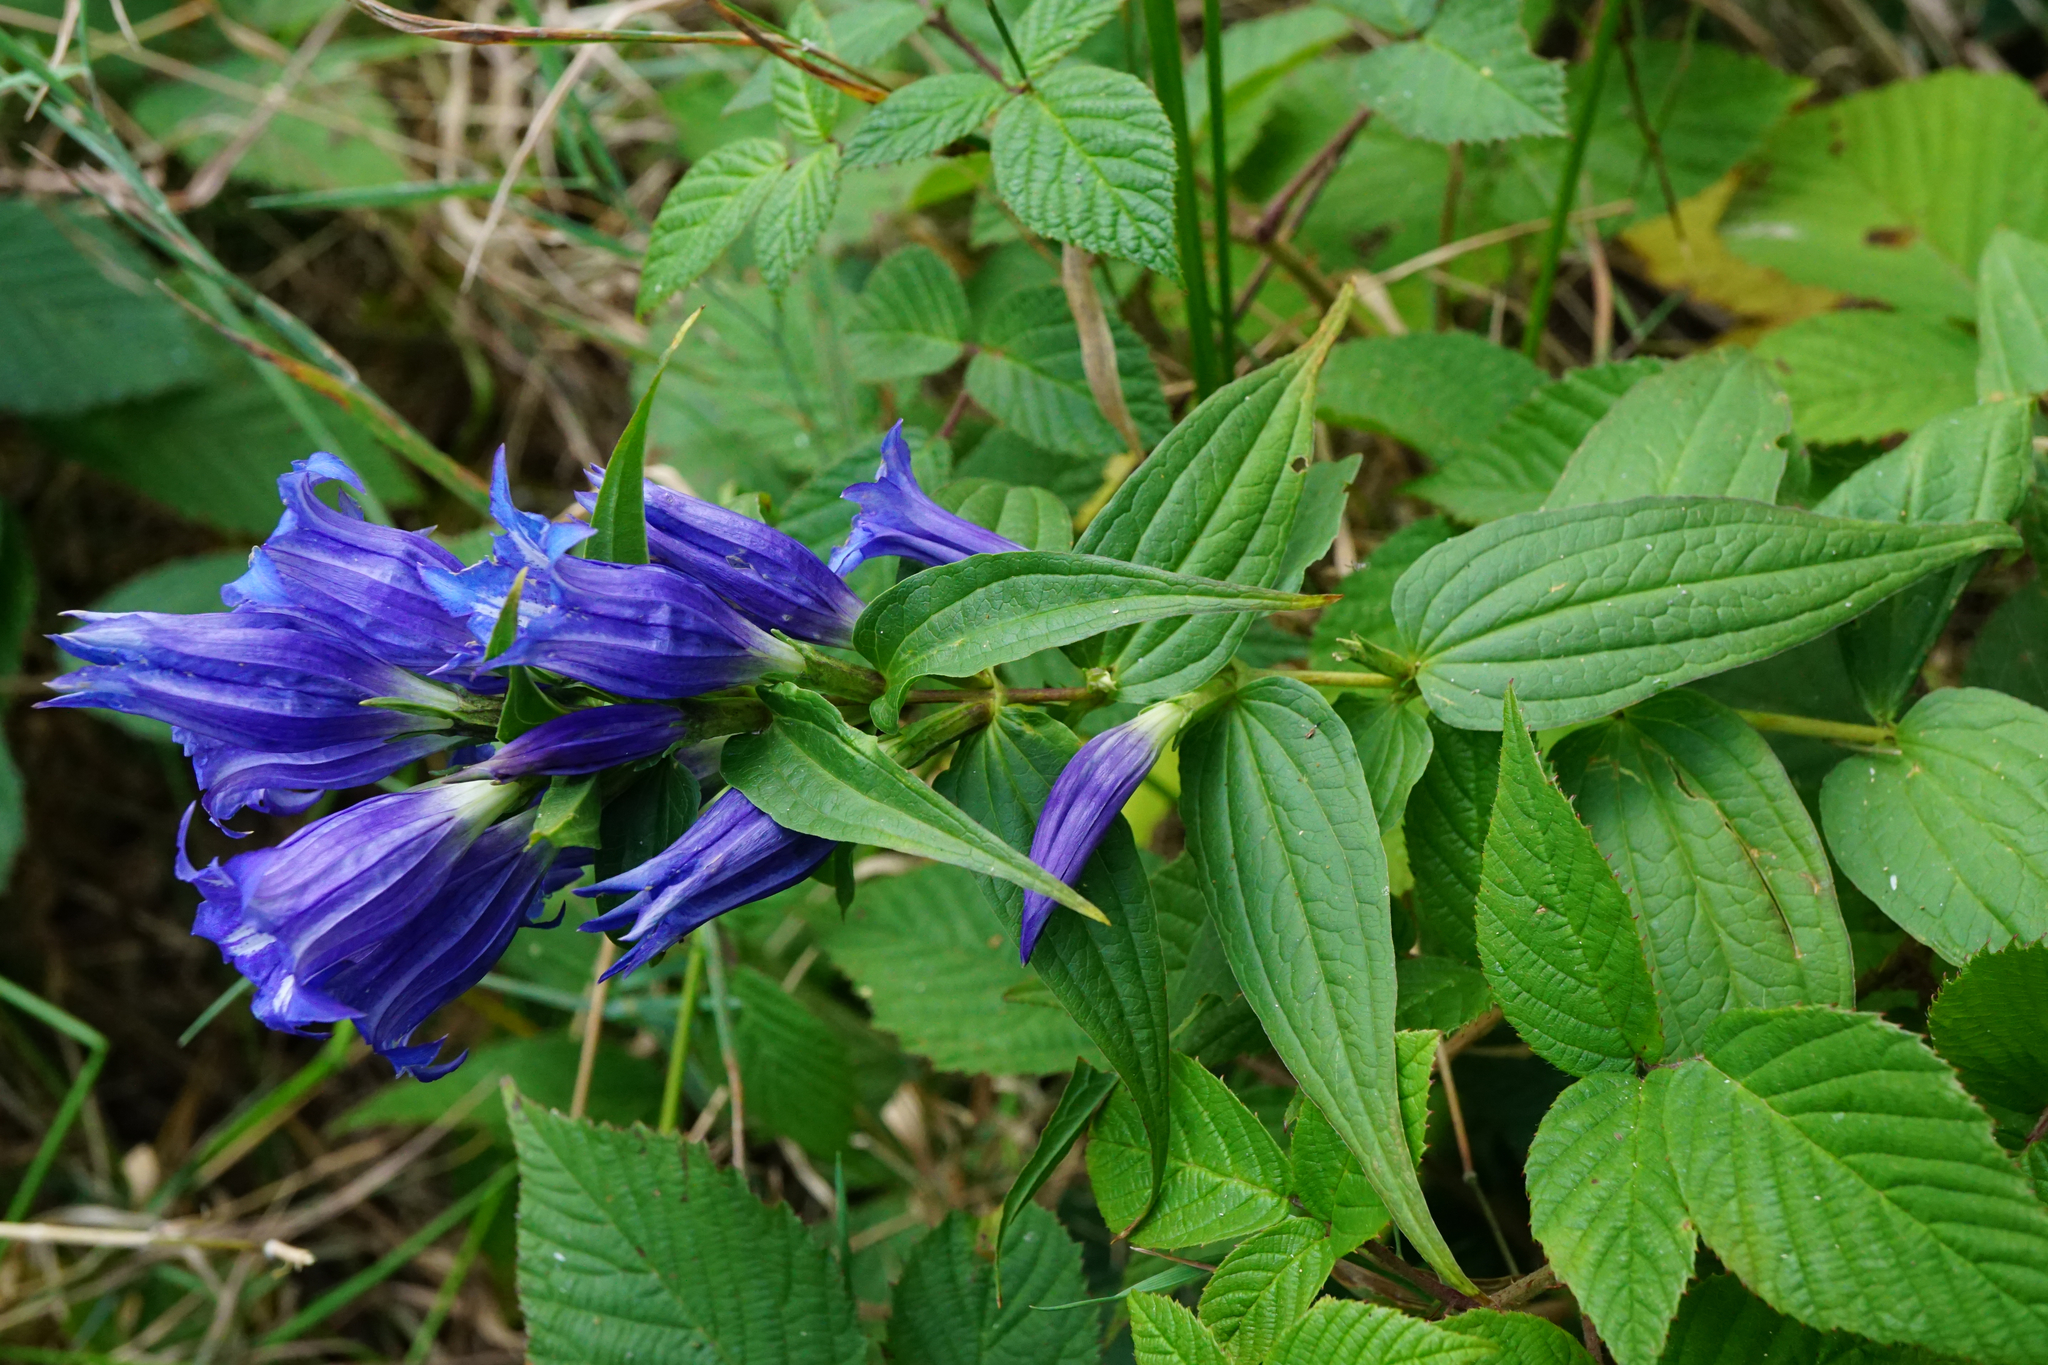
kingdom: Plantae
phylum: Tracheophyta
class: Magnoliopsida
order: Gentianales
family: Gentianaceae
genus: Gentiana
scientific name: Gentiana asclepiadea
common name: Willow gentian
